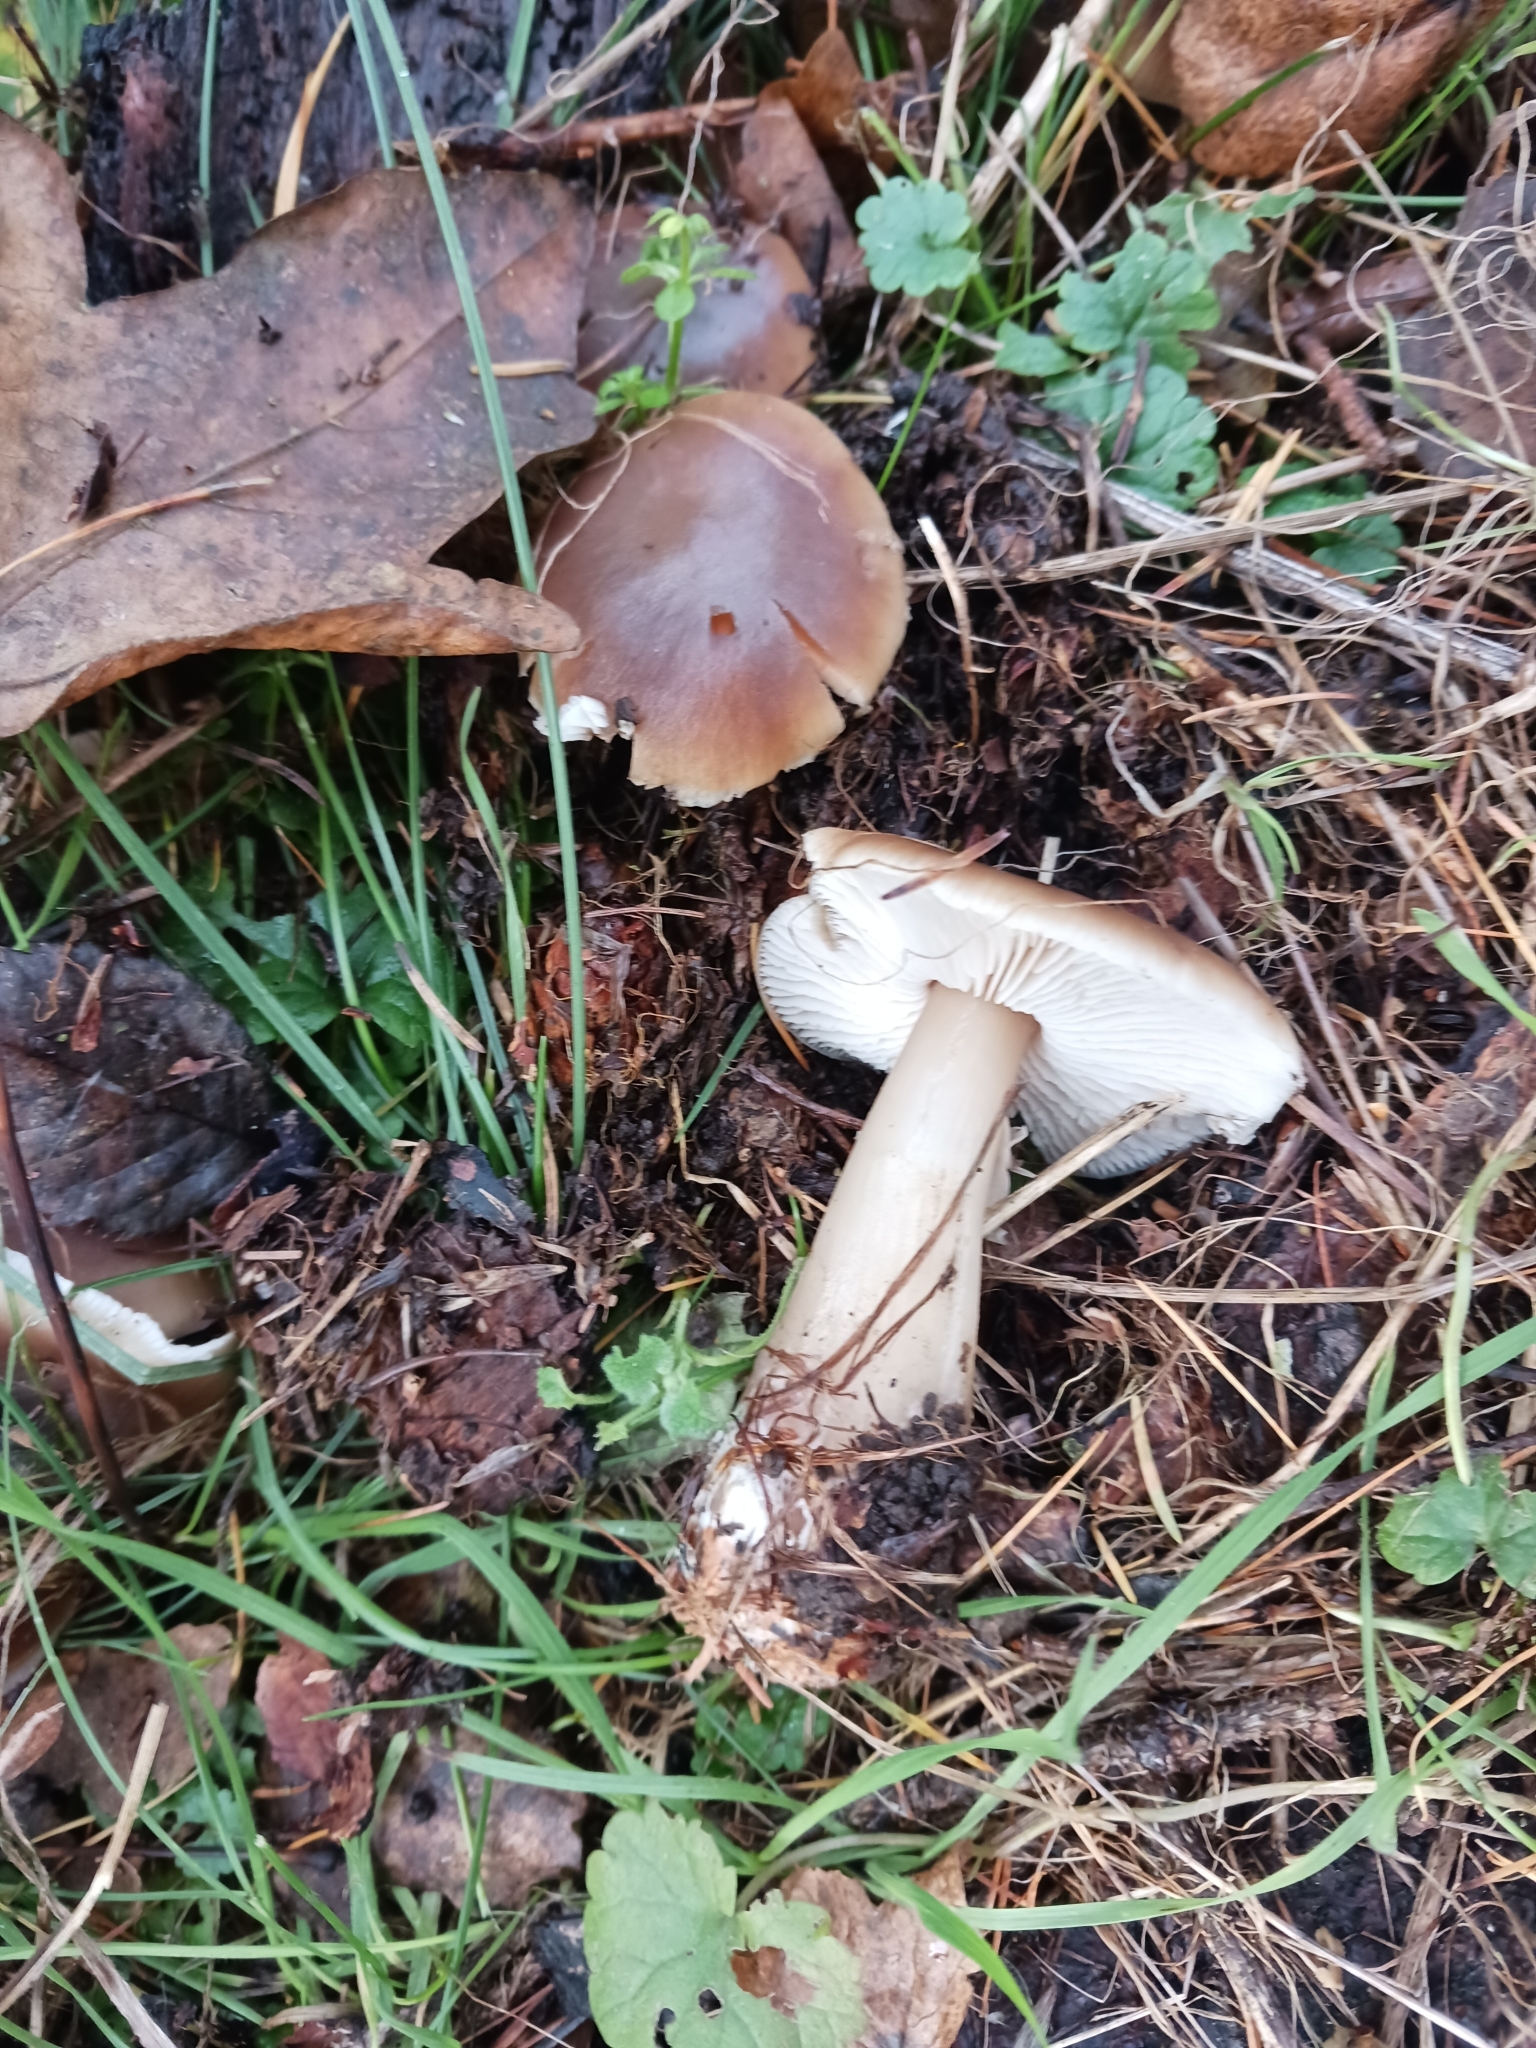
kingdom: Fungi
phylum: Basidiomycota
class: Agaricomycetes
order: Agaricales
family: Omphalotaceae
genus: Rhodocollybia
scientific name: Rhodocollybia butyracea
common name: Butter cap
